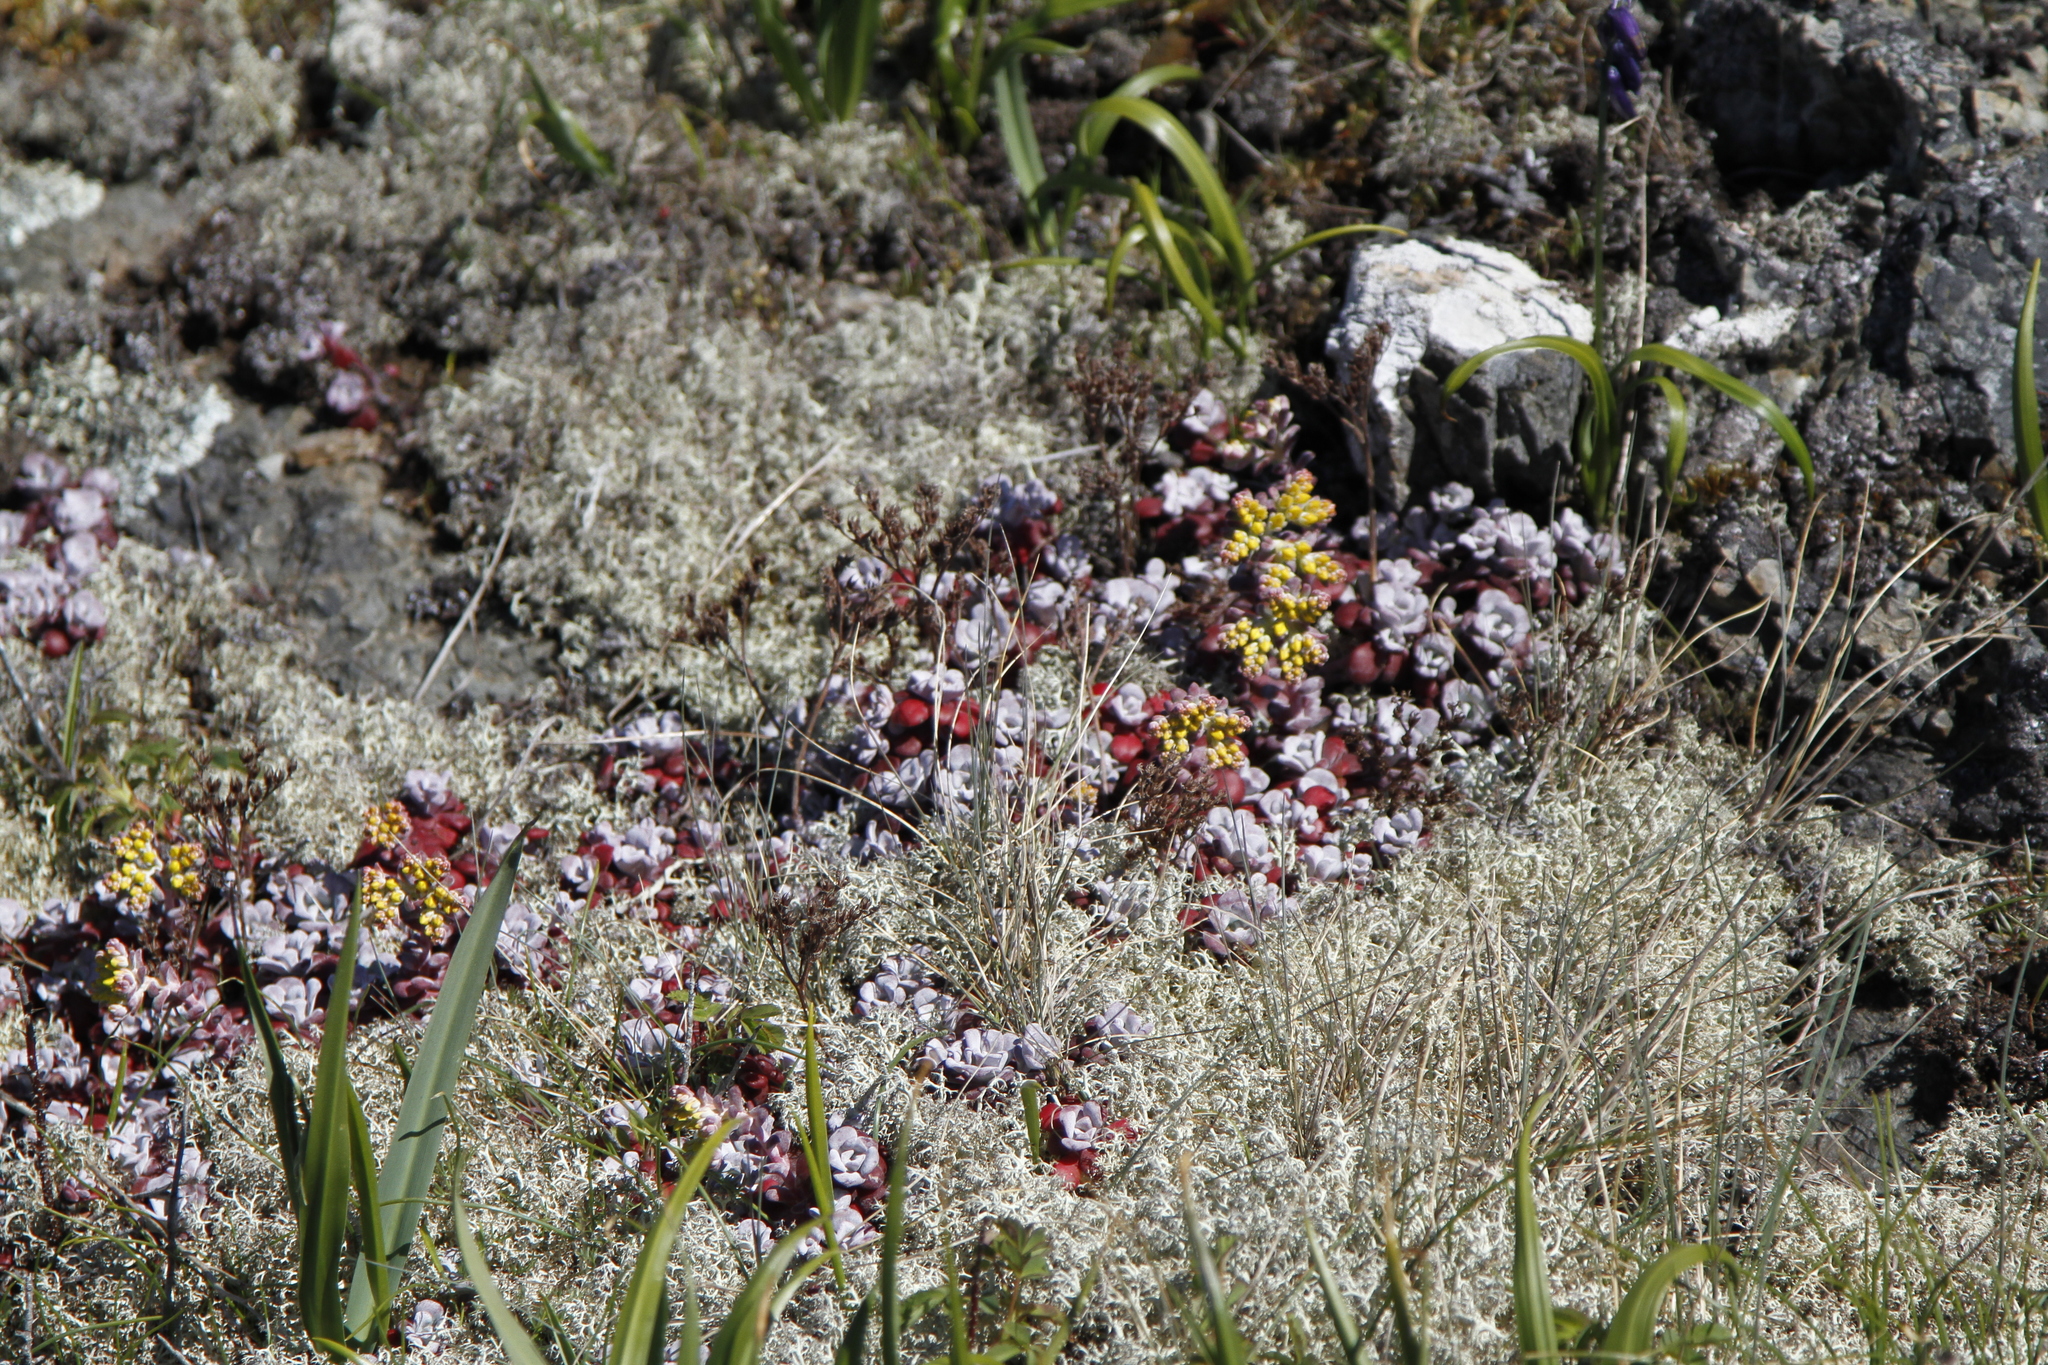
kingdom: Plantae
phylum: Tracheophyta
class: Magnoliopsida
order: Saxifragales
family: Crassulaceae
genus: Sedum
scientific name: Sedum spathulifolium
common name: Colorado stonecrop
